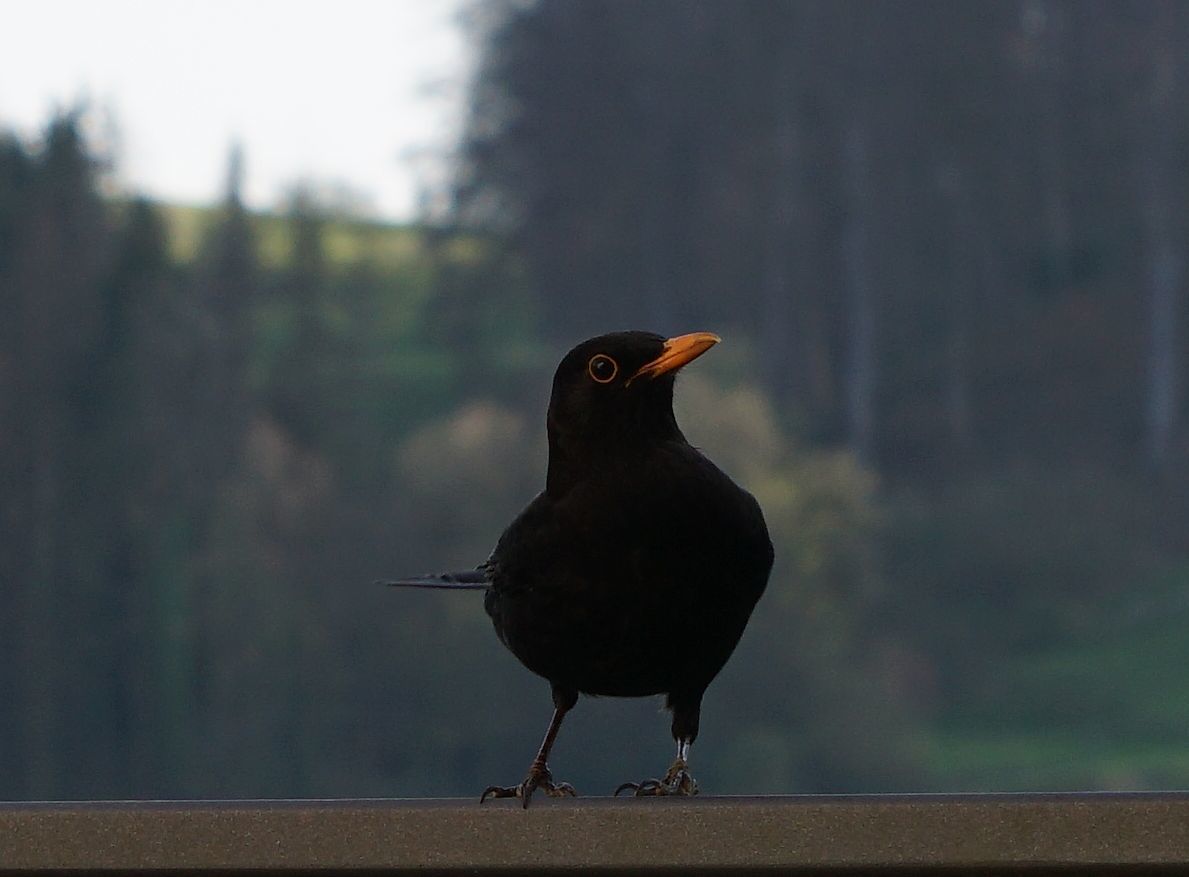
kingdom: Animalia
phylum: Chordata
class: Aves
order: Passeriformes
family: Turdidae
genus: Turdus
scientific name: Turdus merula
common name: Common blackbird
